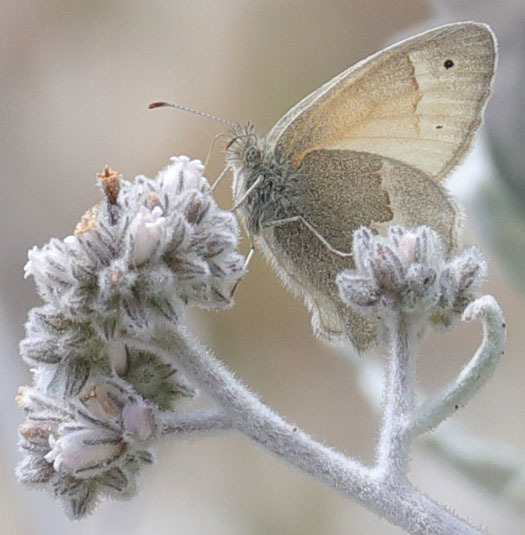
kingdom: Animalia
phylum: Arthropoda
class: Insecta
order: Lepidoptera
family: Nymphalidae
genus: Coenonympha
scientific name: Coenonympha california
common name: Common ringlet
